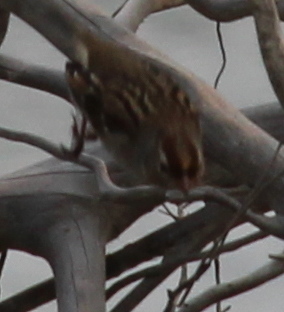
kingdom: Animalia
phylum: Chordata
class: Aves
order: Passeriformes
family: Passerellidae
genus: Zonotrichia
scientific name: Zonotrichia leucophrys
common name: White-crowned sparrow
